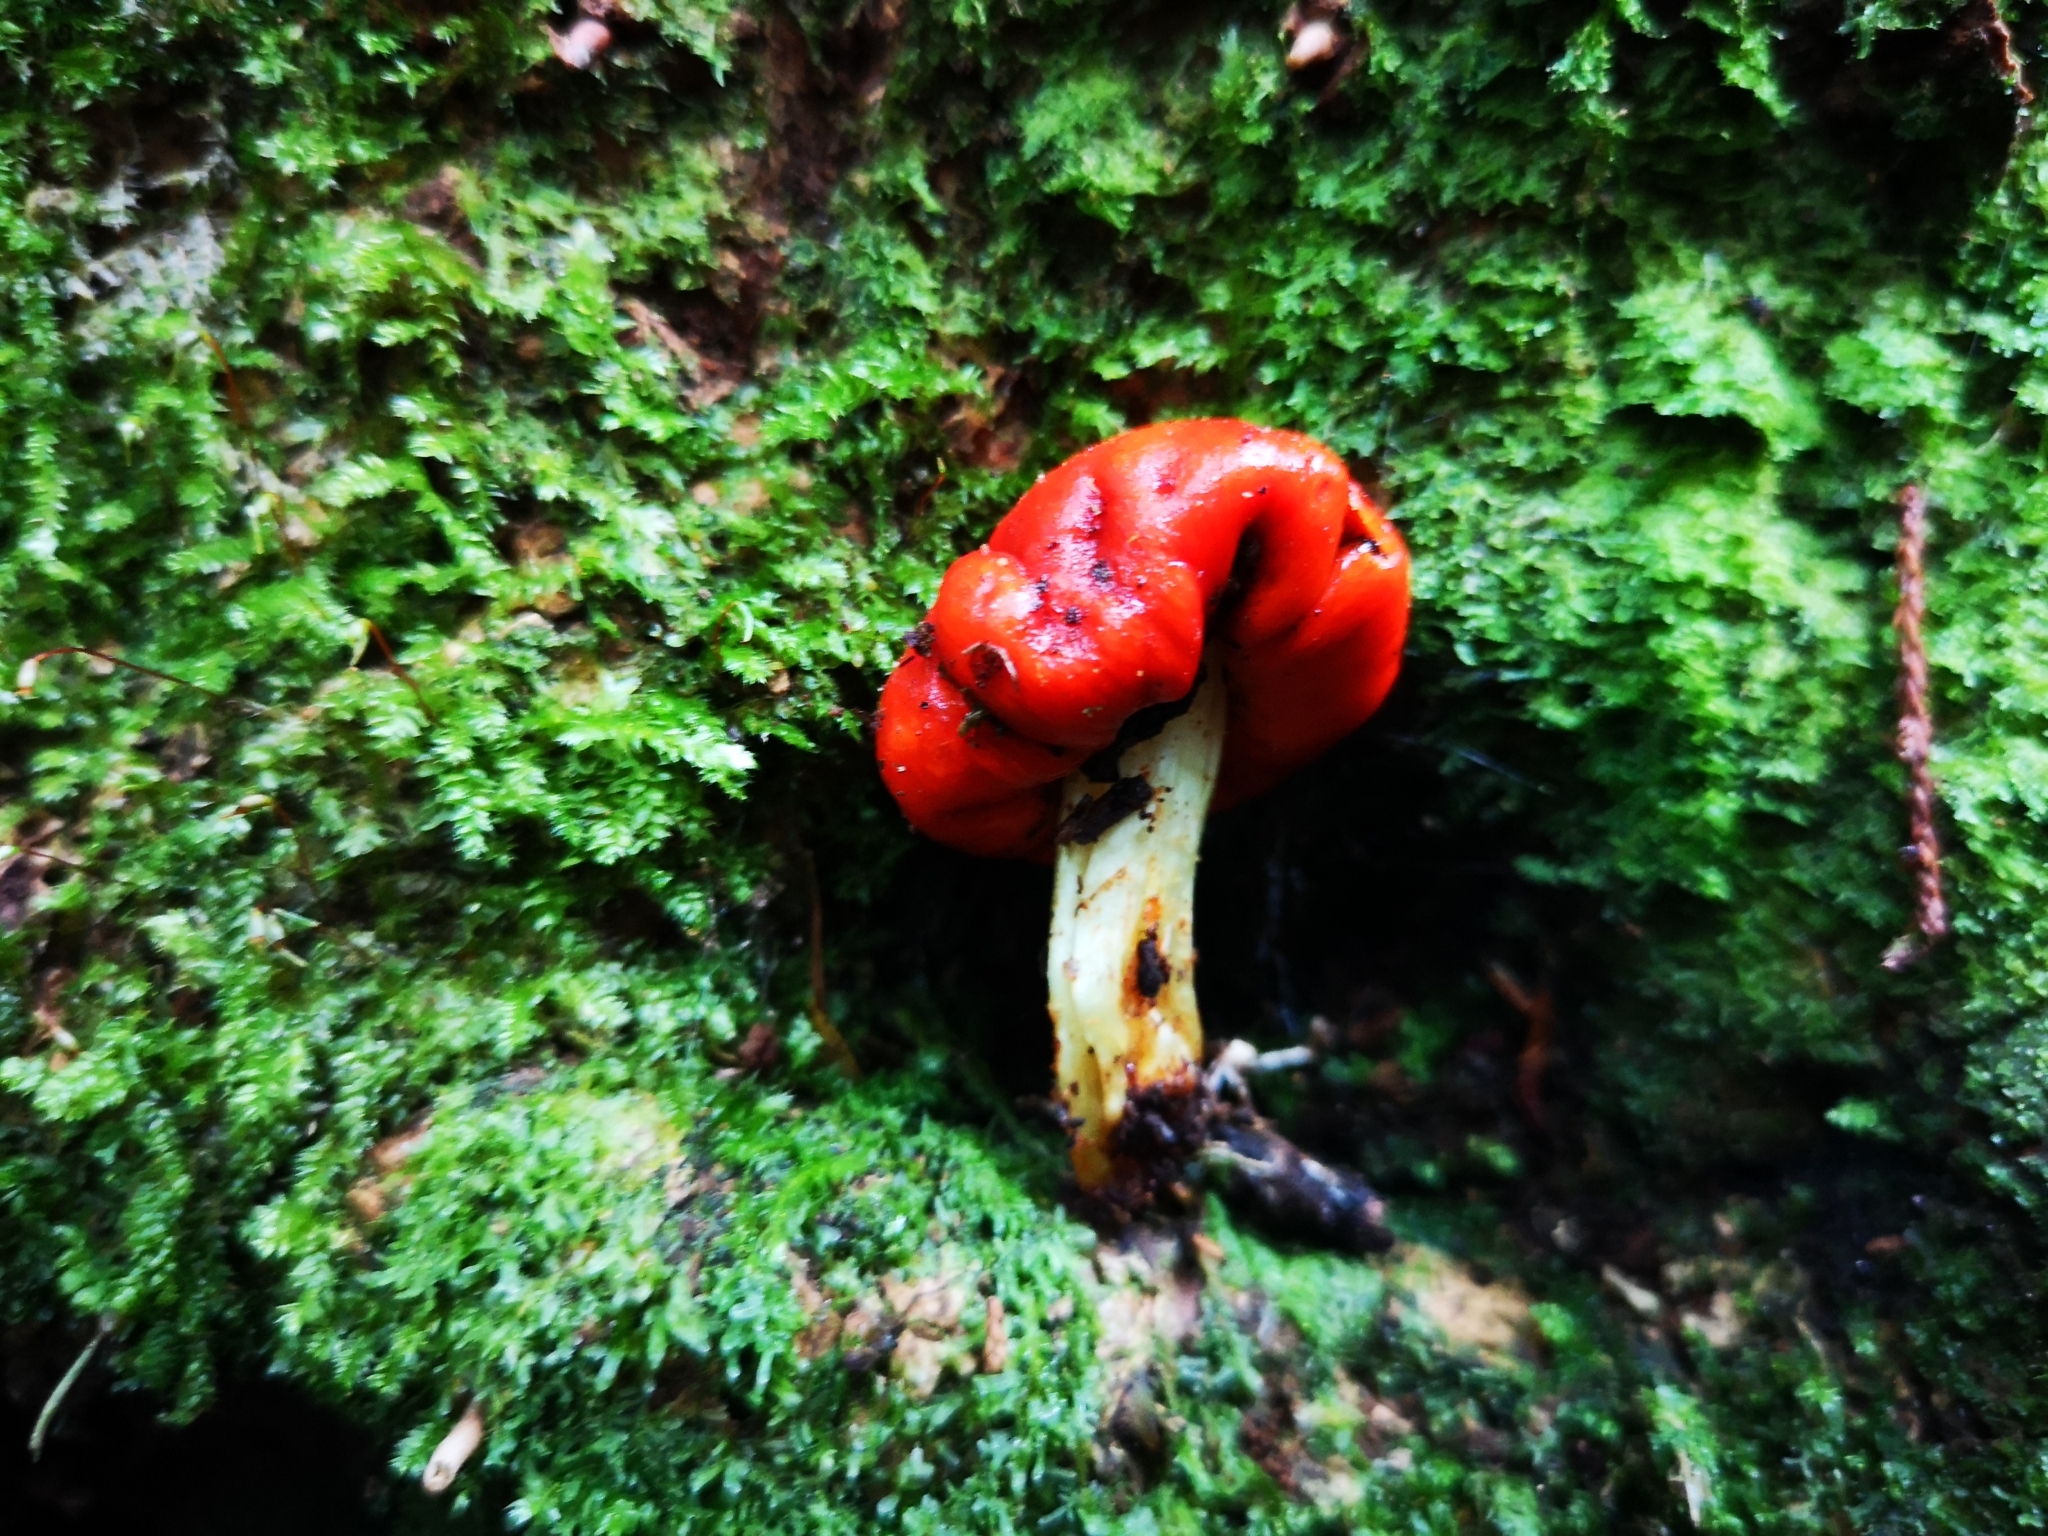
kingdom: Fungi
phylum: Basidiomycota
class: Agaricomycetes
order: Agaricales
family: Strophariaceae
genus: Leratiomyces
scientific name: Leratiomyces erythrocephalus
